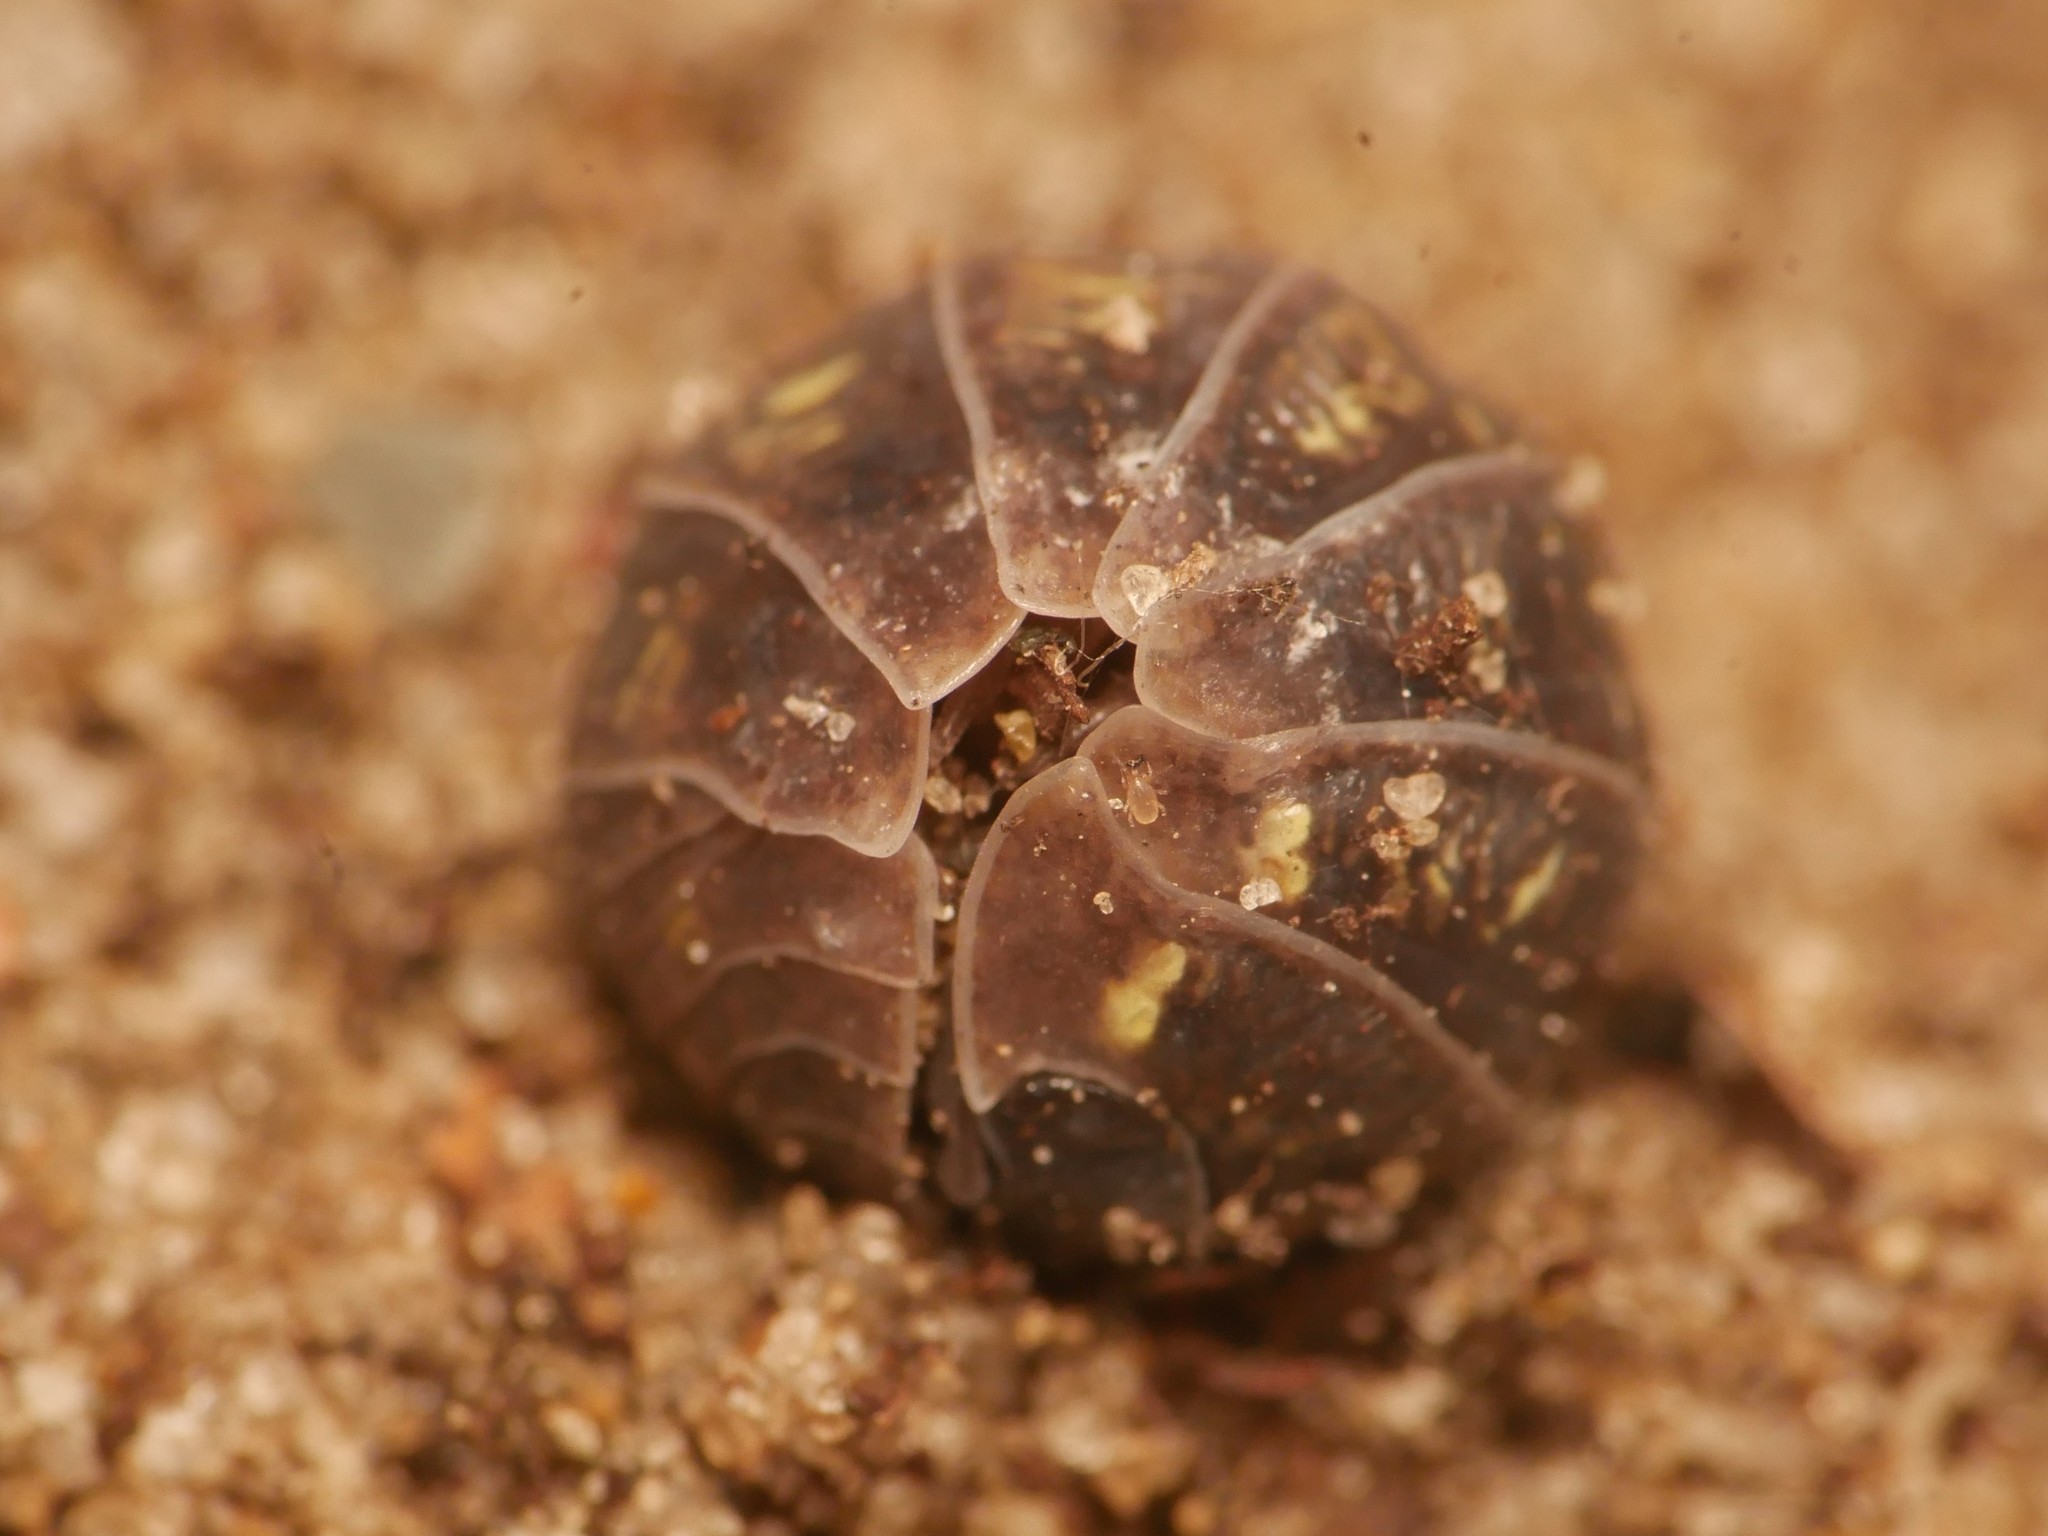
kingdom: Animalia
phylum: Arthropoda
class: Malacostraca
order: Isopoda
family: Armadillidiidae
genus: Armadillidium
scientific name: Armadillidium vulgare
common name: Common pill woodlouse
